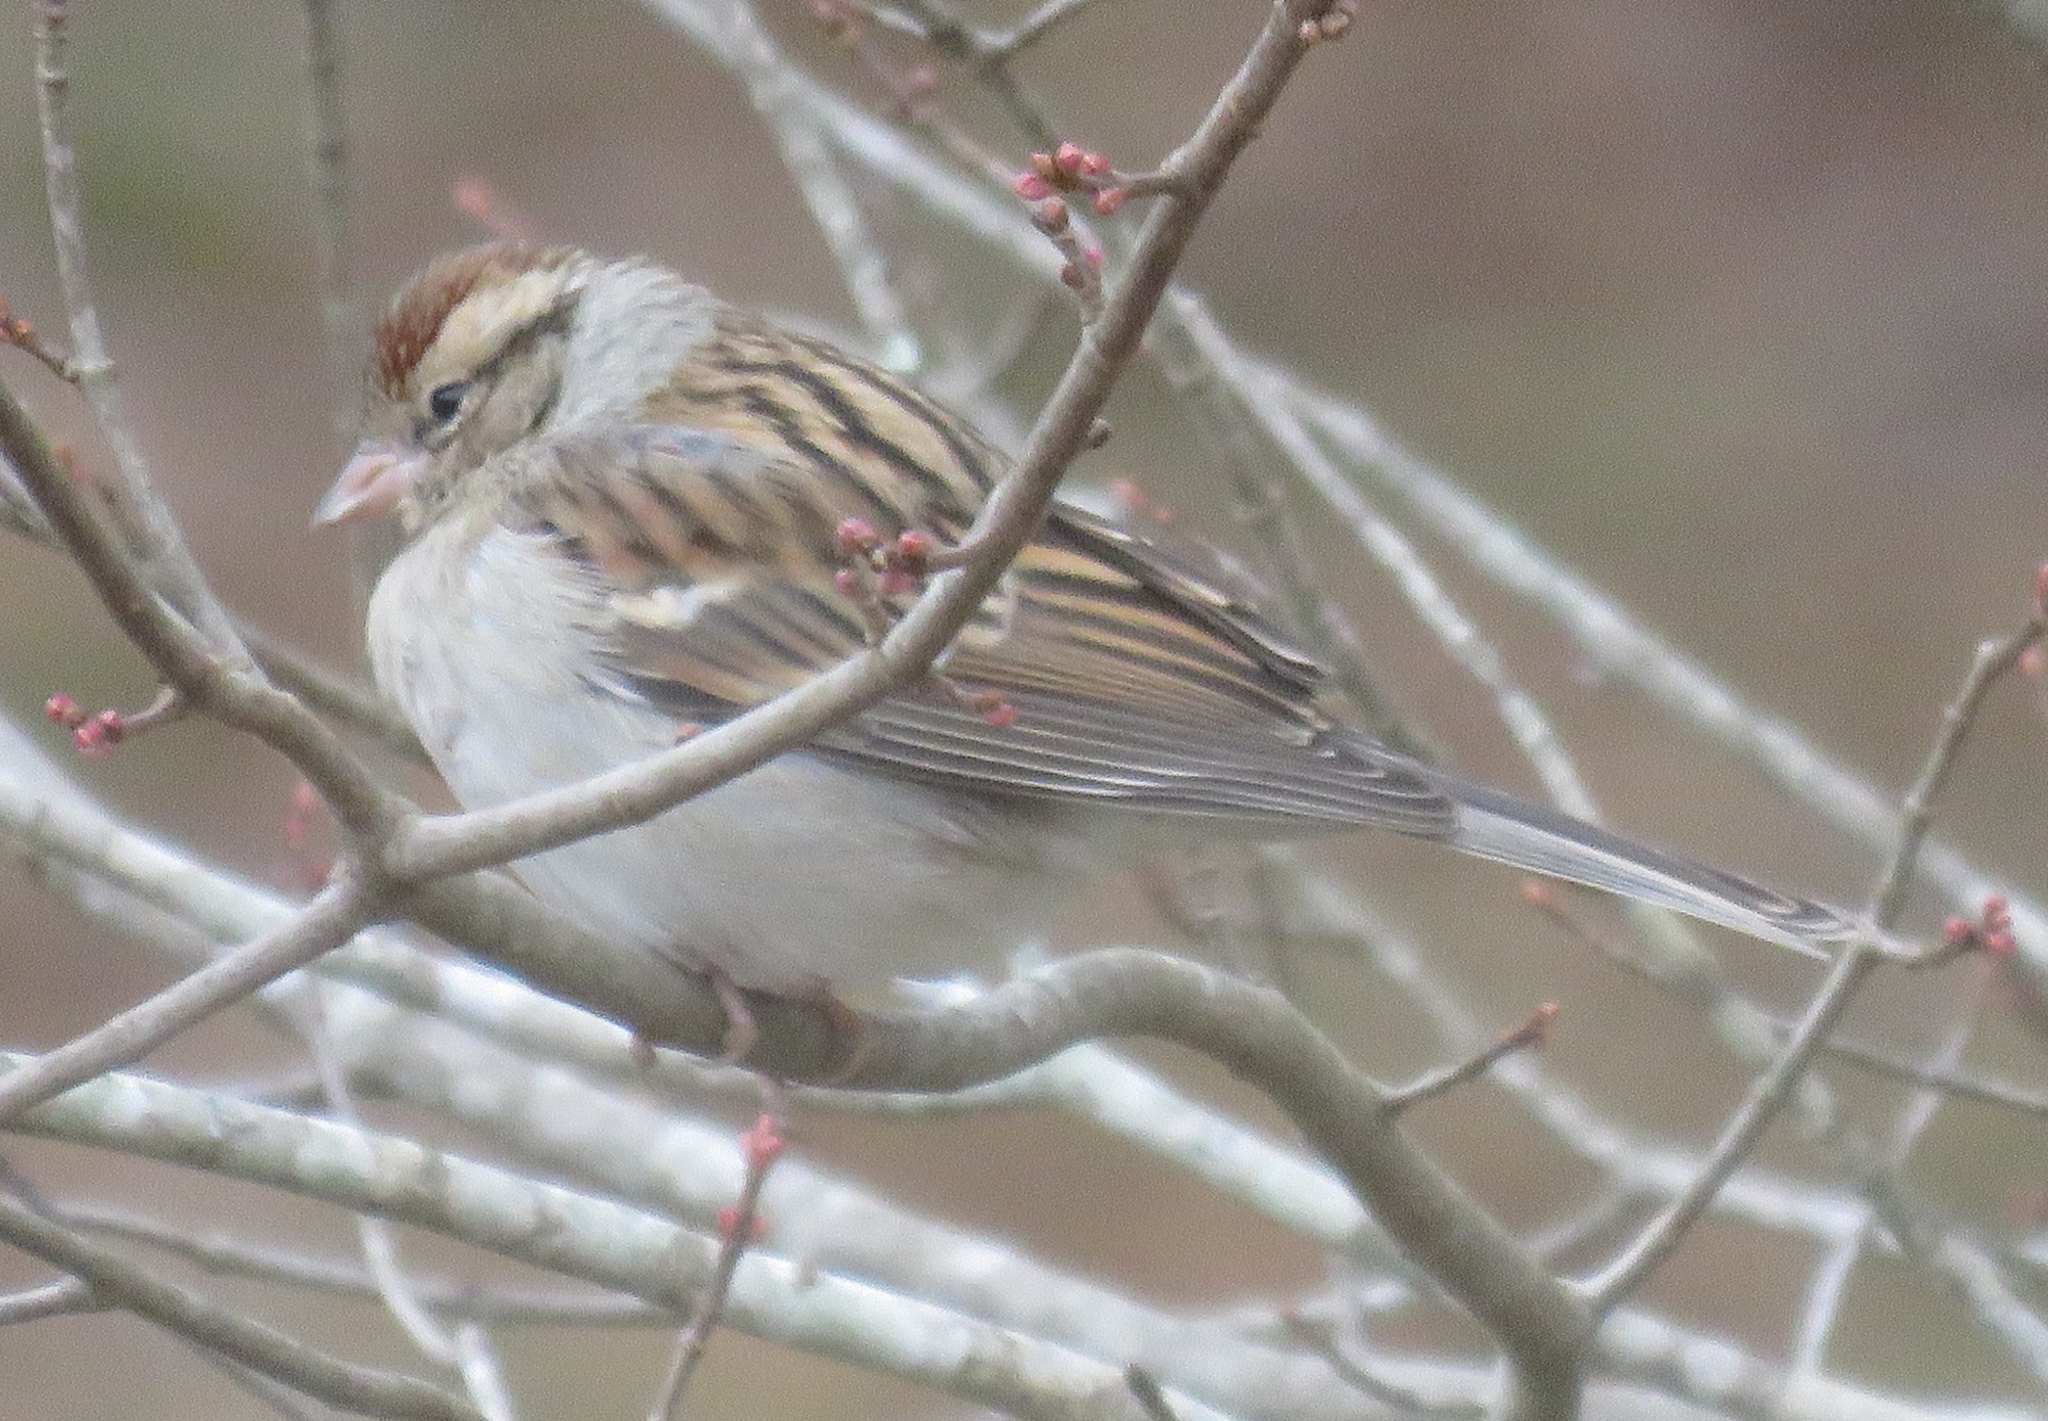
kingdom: Animalia
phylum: Chordata
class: Aves
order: Passeriformes
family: Passerellidae
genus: Spizella
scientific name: Spizella passerina
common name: Chipping sparrow
